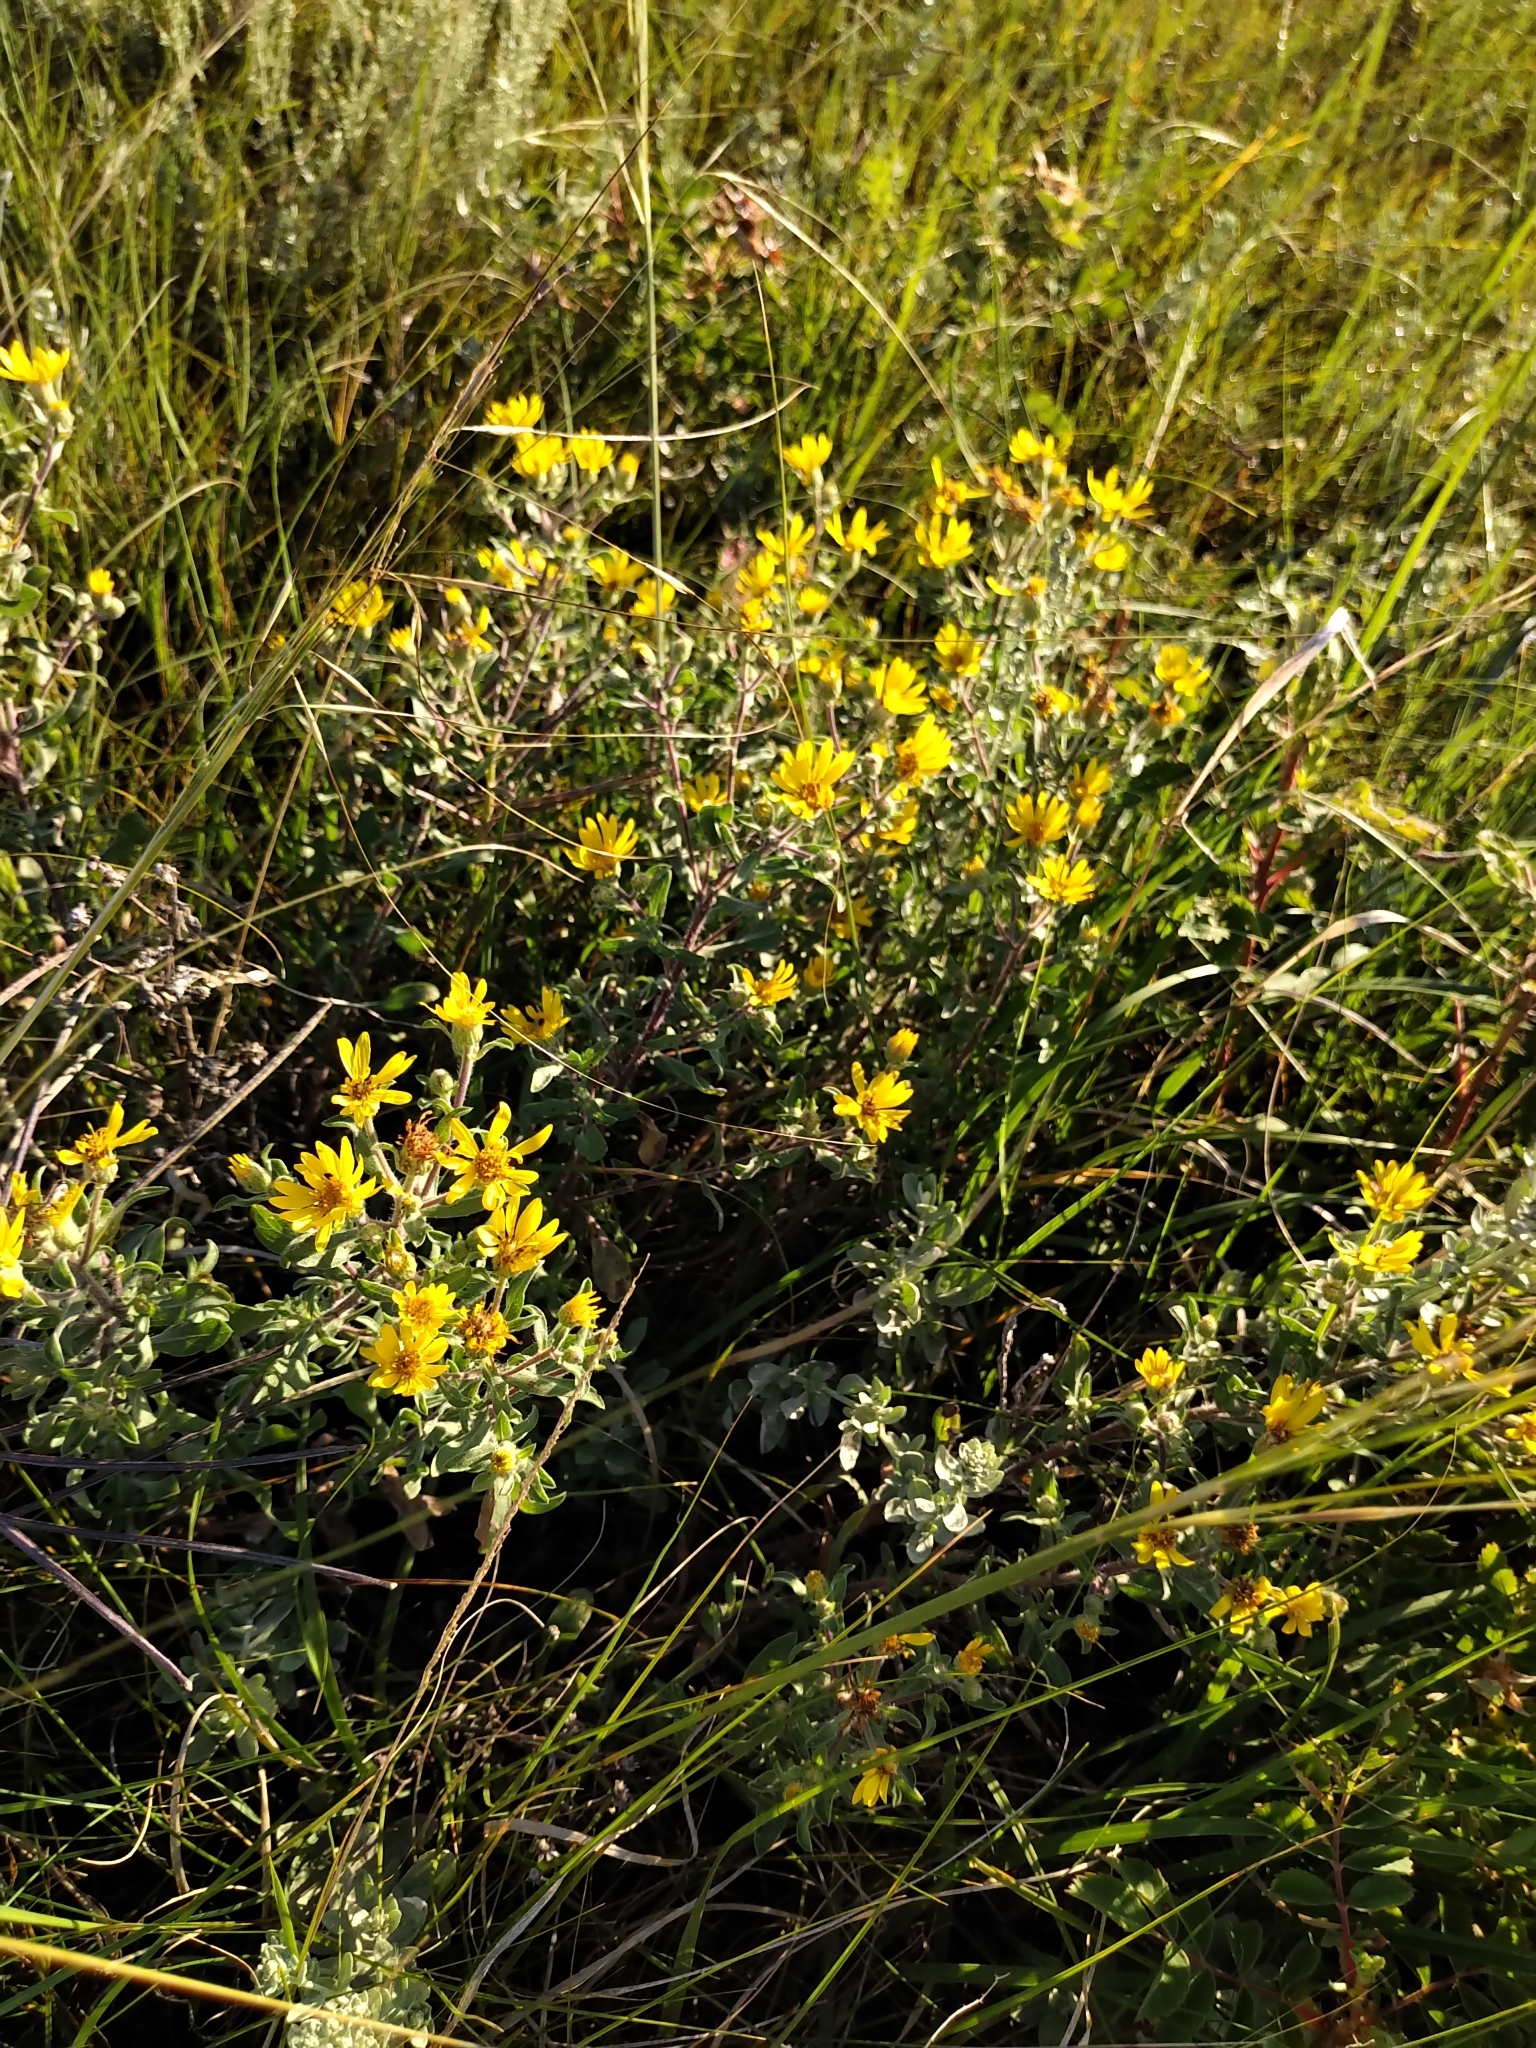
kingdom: Plantae
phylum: Tracheophyta
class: Magnoliopsida
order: Asterales
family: Asteraceae
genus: Heterotheca
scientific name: Heterotheca villosa
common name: Hairy false goldenaster
